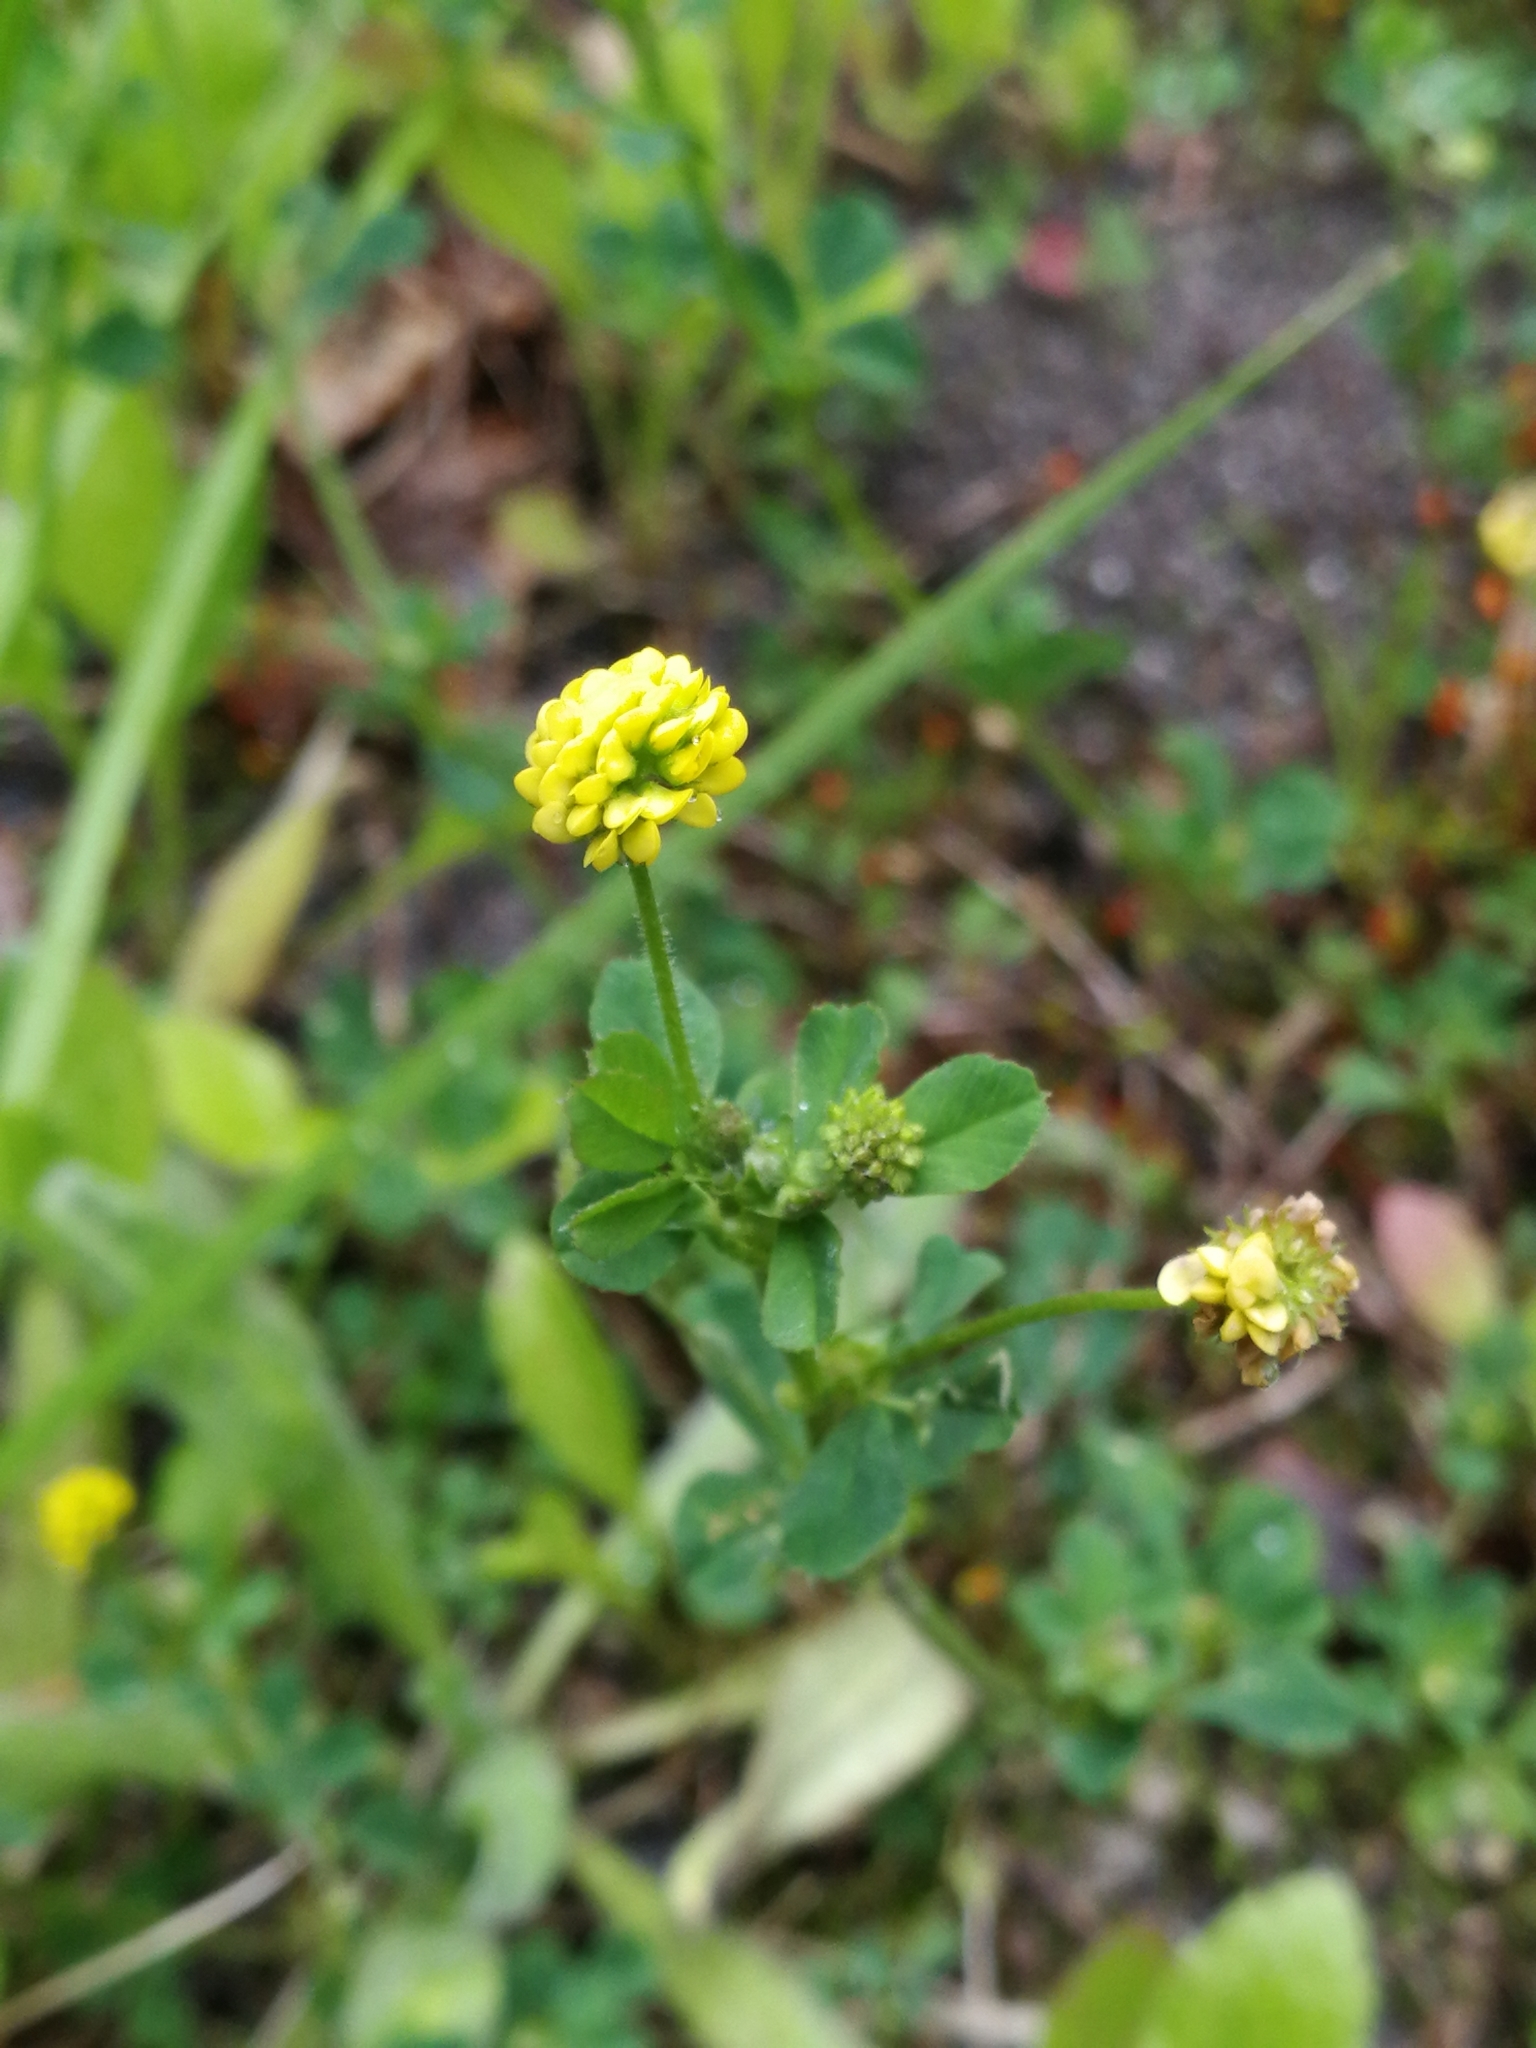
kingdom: Plantae
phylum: Tracheophyta
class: Magnoliopsida
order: Fabales
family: Fabaceae
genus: Medicago
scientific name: Medicago lupulina
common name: Black medick
